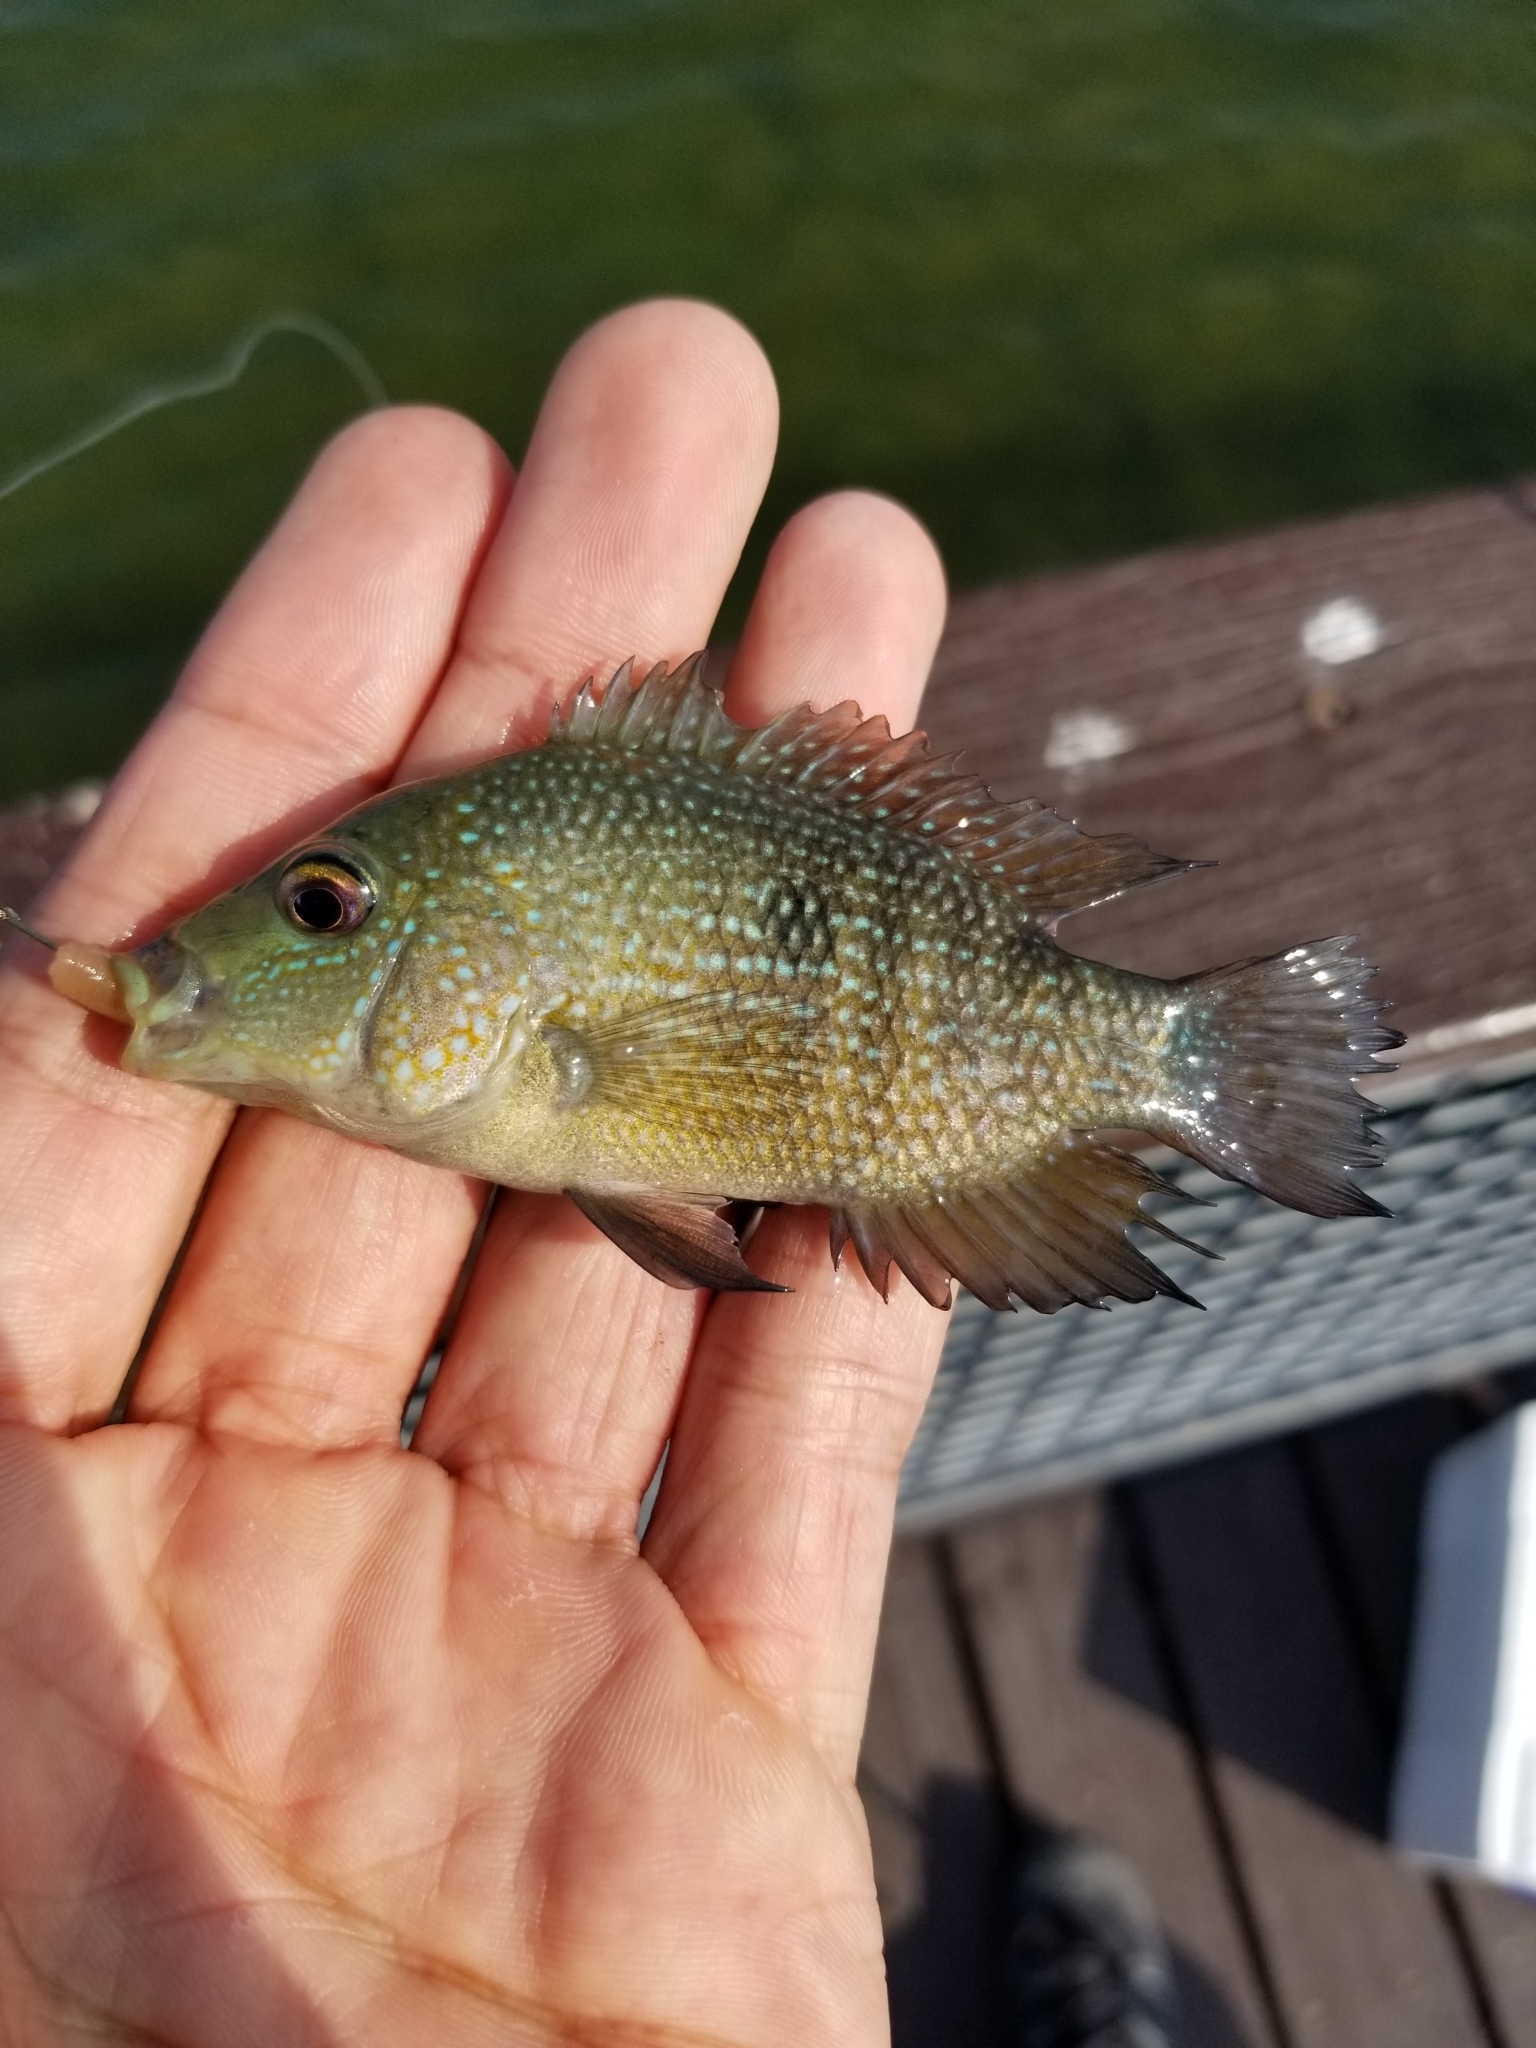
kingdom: Animalia
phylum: Chordata
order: Perciformes
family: Cichlidae
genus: Herichthys
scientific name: Herichthys cyanoguttatus
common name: Rio grande cichlid
